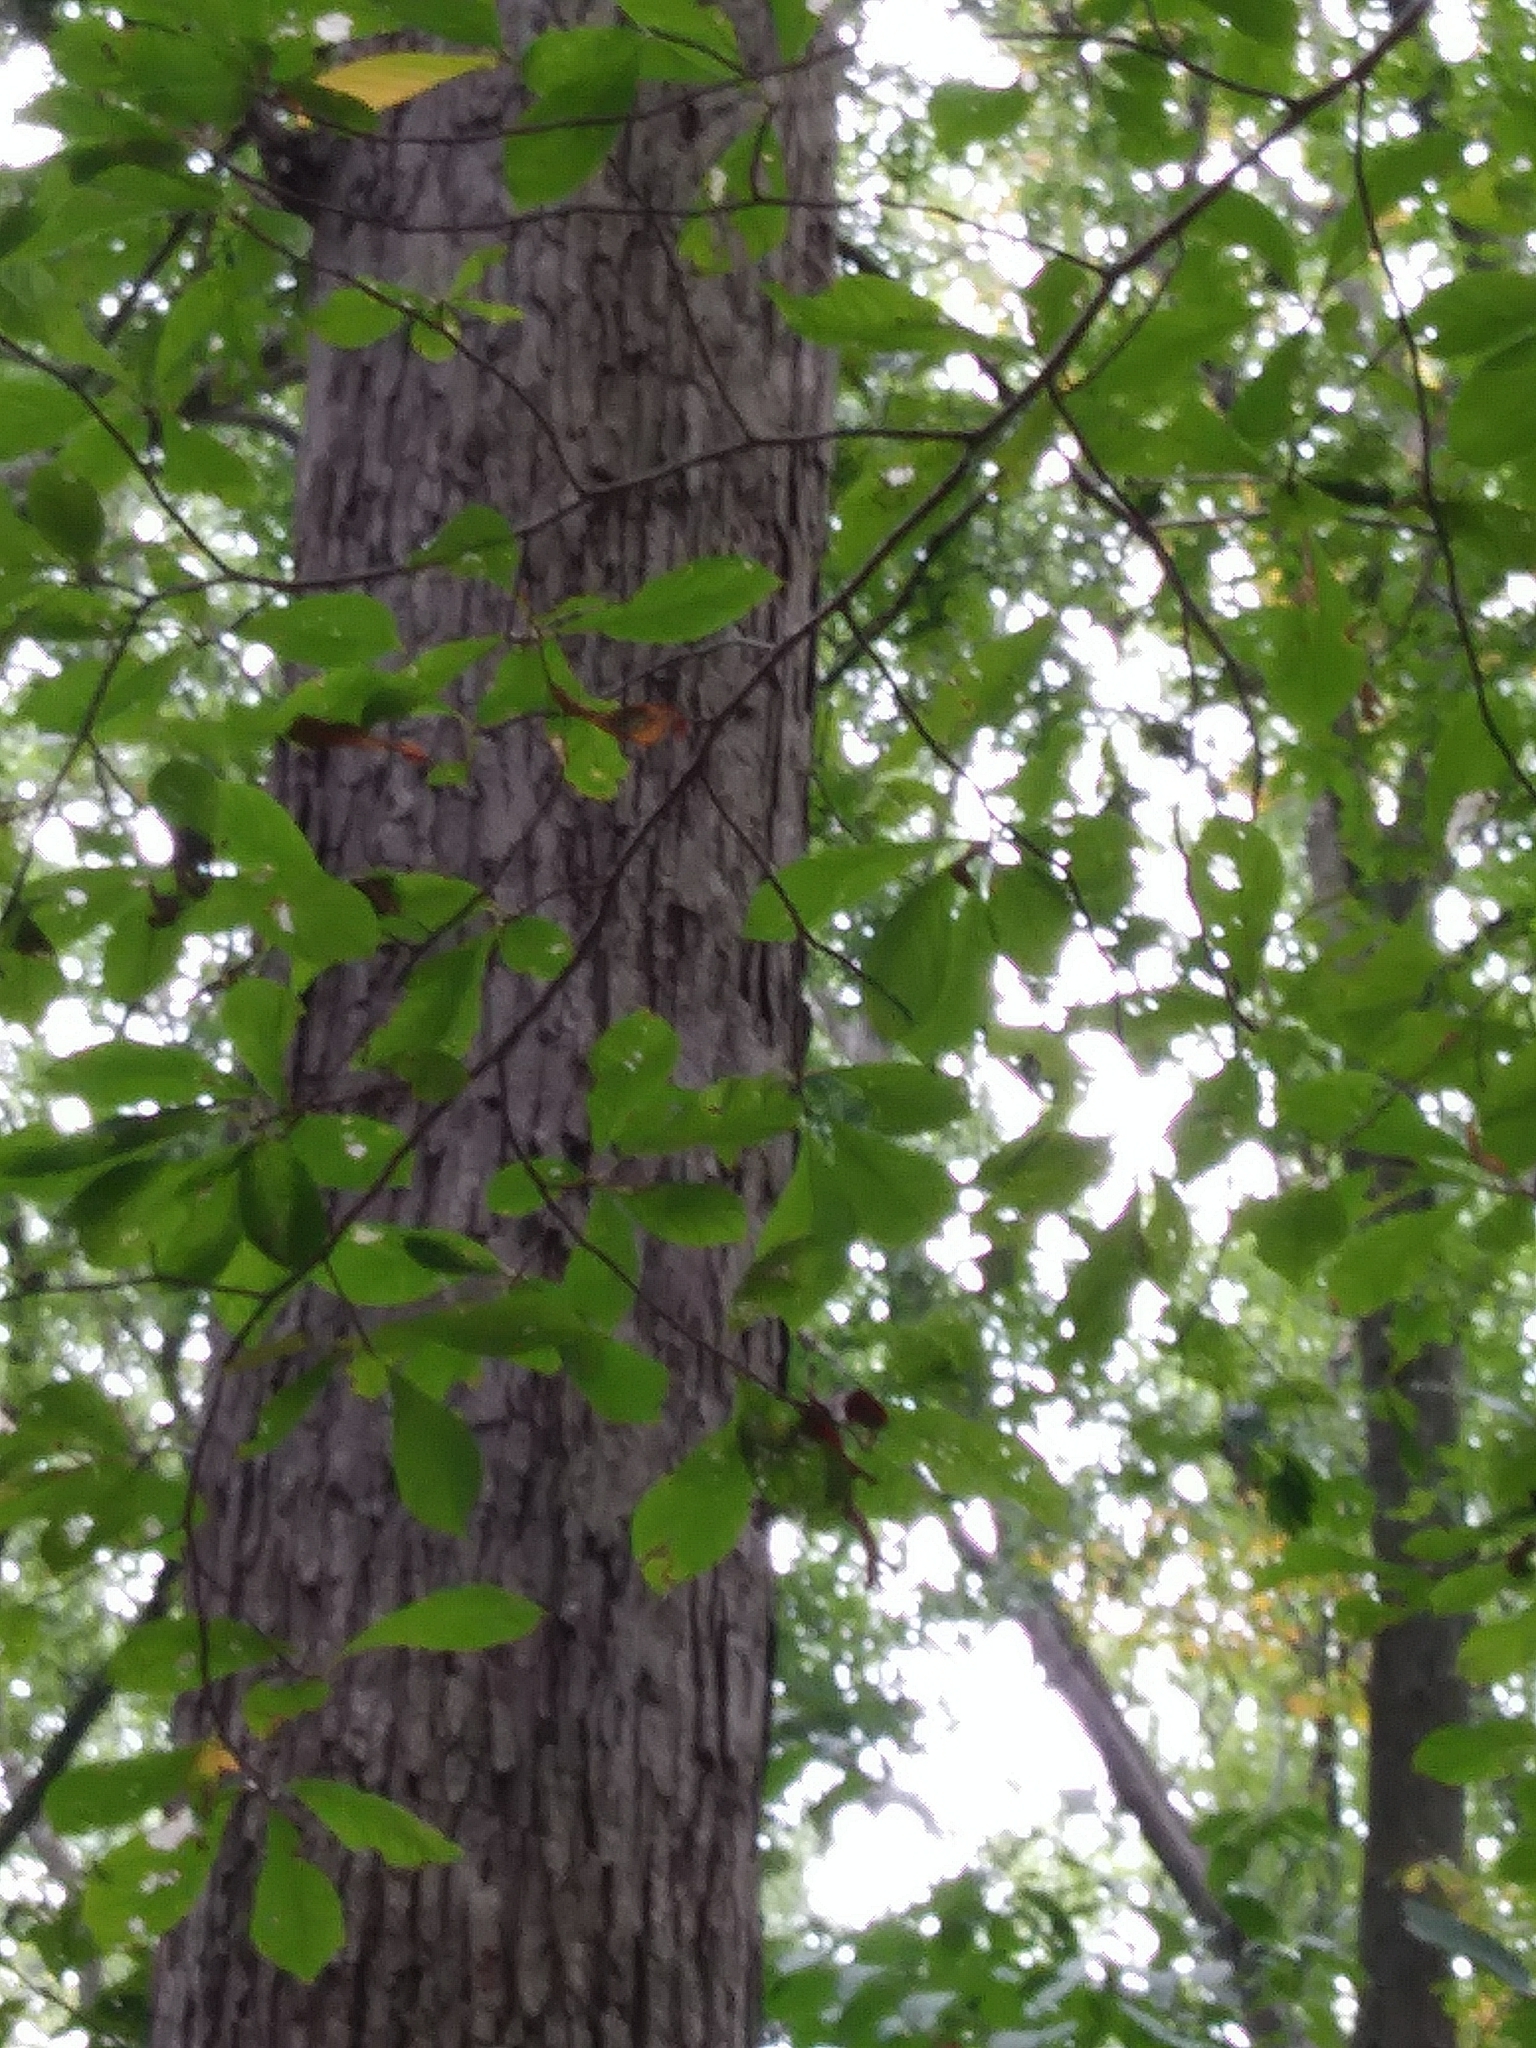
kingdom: Plantae
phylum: Tracheophyta
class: Magnoliopsida
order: Cornales
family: Nyssaceae
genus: Nyssa
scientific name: Nyssa sylvatica
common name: Black tupelo
